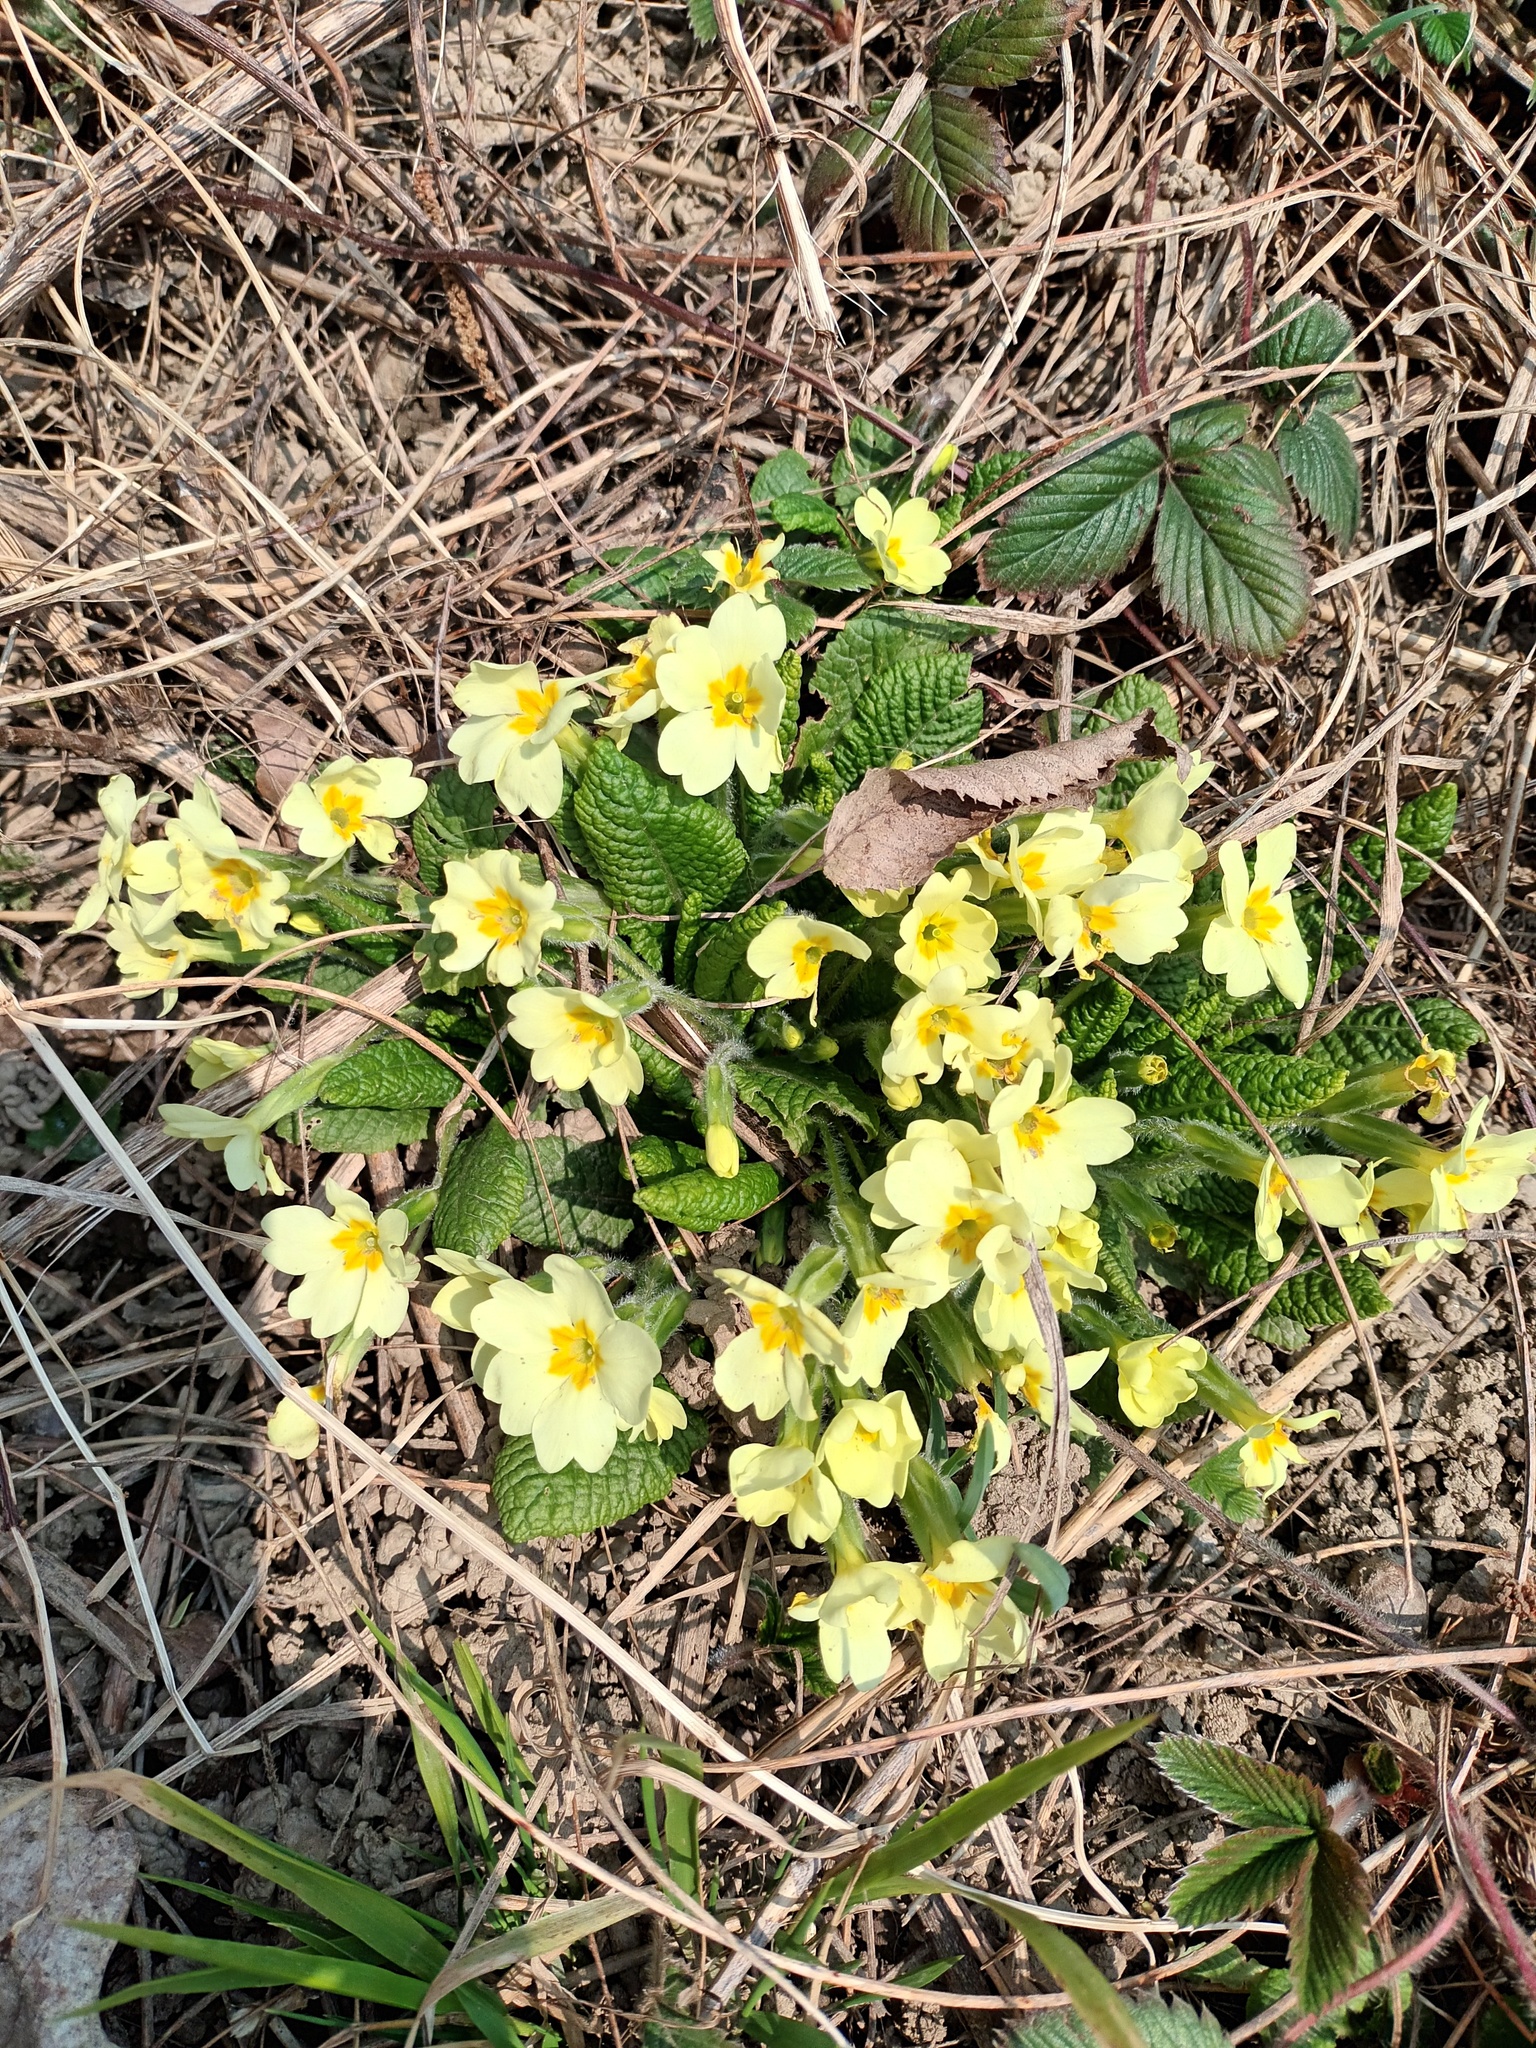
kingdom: Plantae
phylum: Tracheophyta
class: Magnoliopsida
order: Ericales
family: Primulaceae
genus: Primula
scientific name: Primula vulgaris
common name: Primrose
